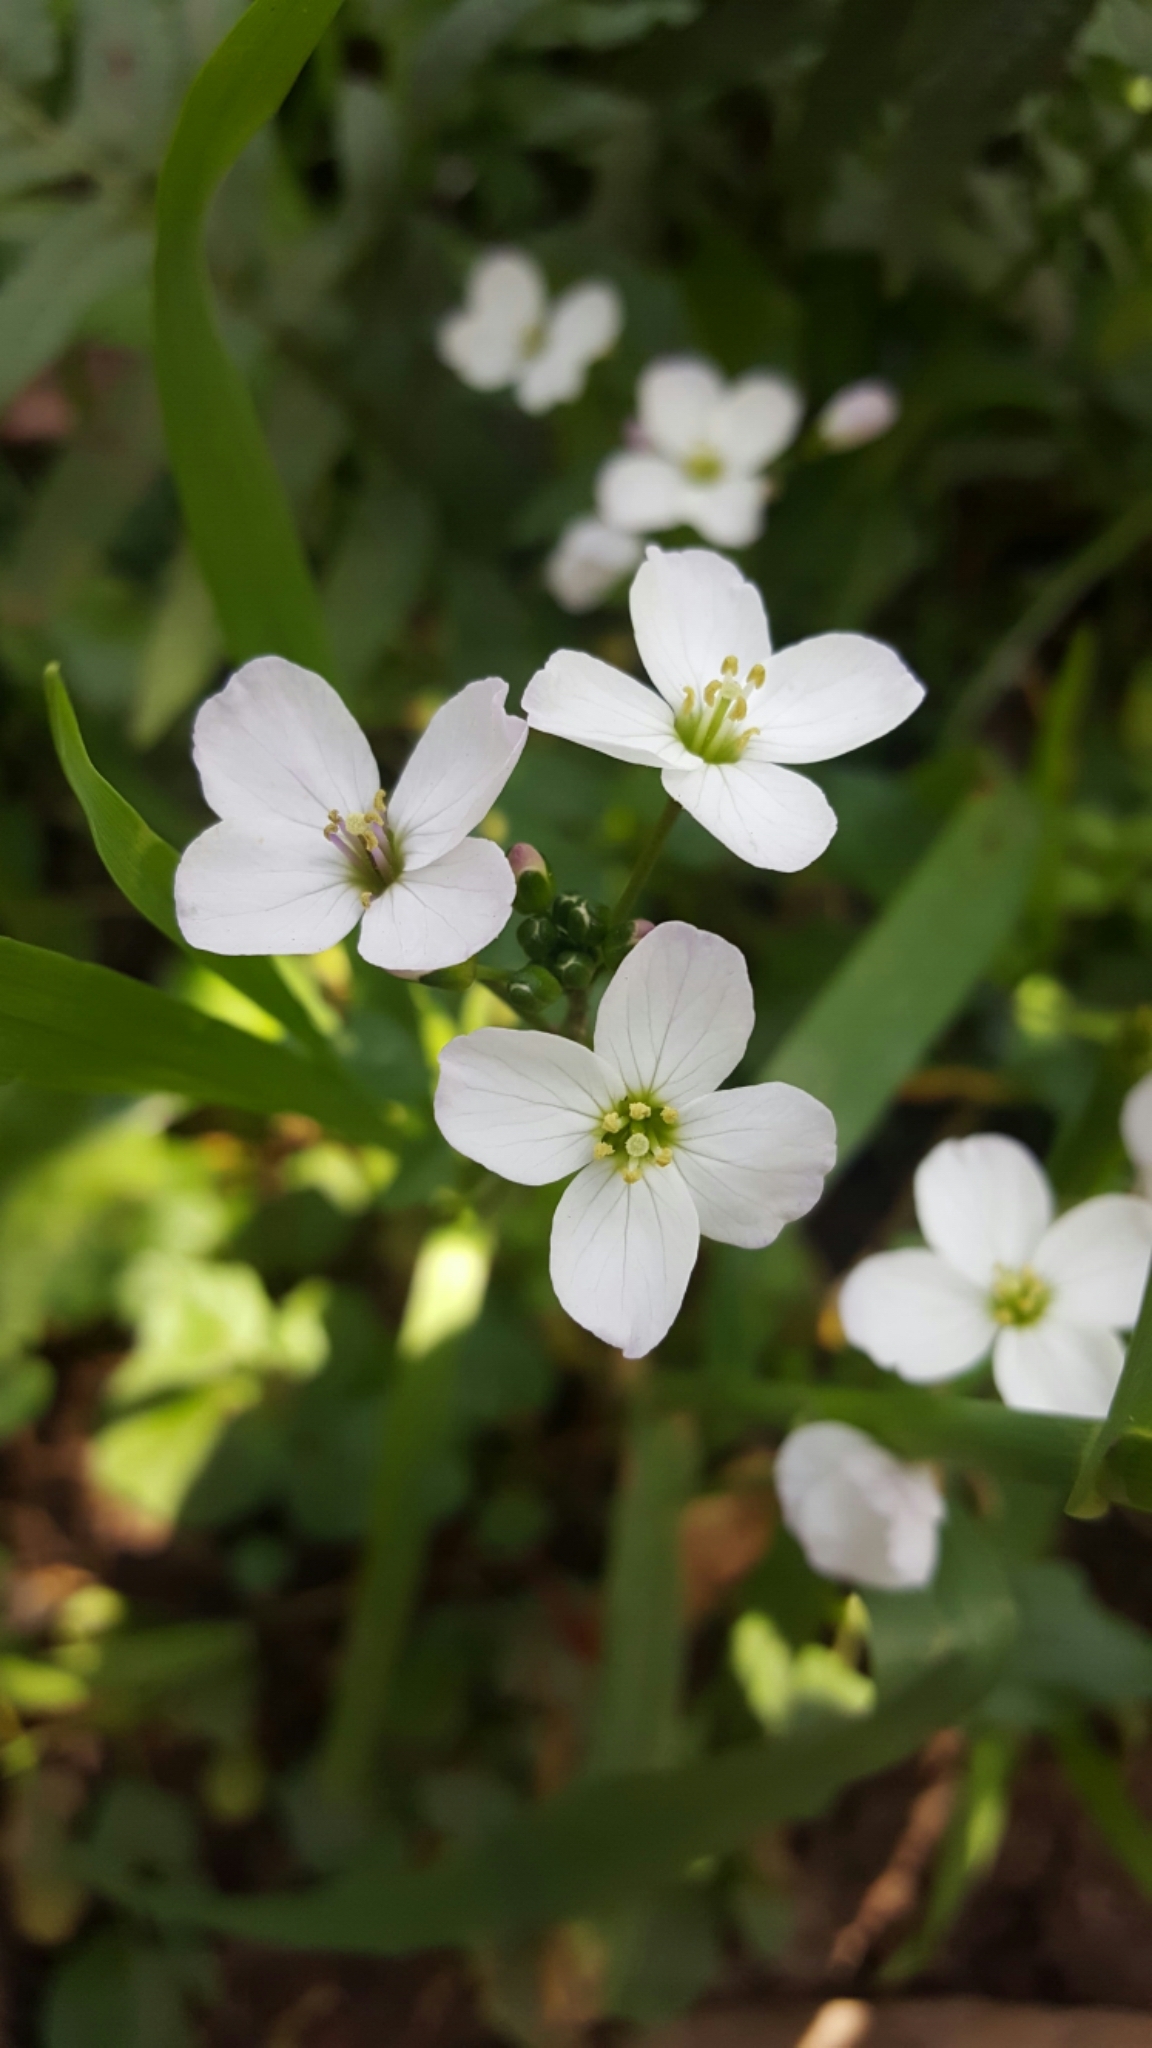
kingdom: Plantae
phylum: Tracheophyta
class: Magnoliopsida
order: Brassicales
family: Brassicaceae
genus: Cardamine
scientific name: Cardamine californica
